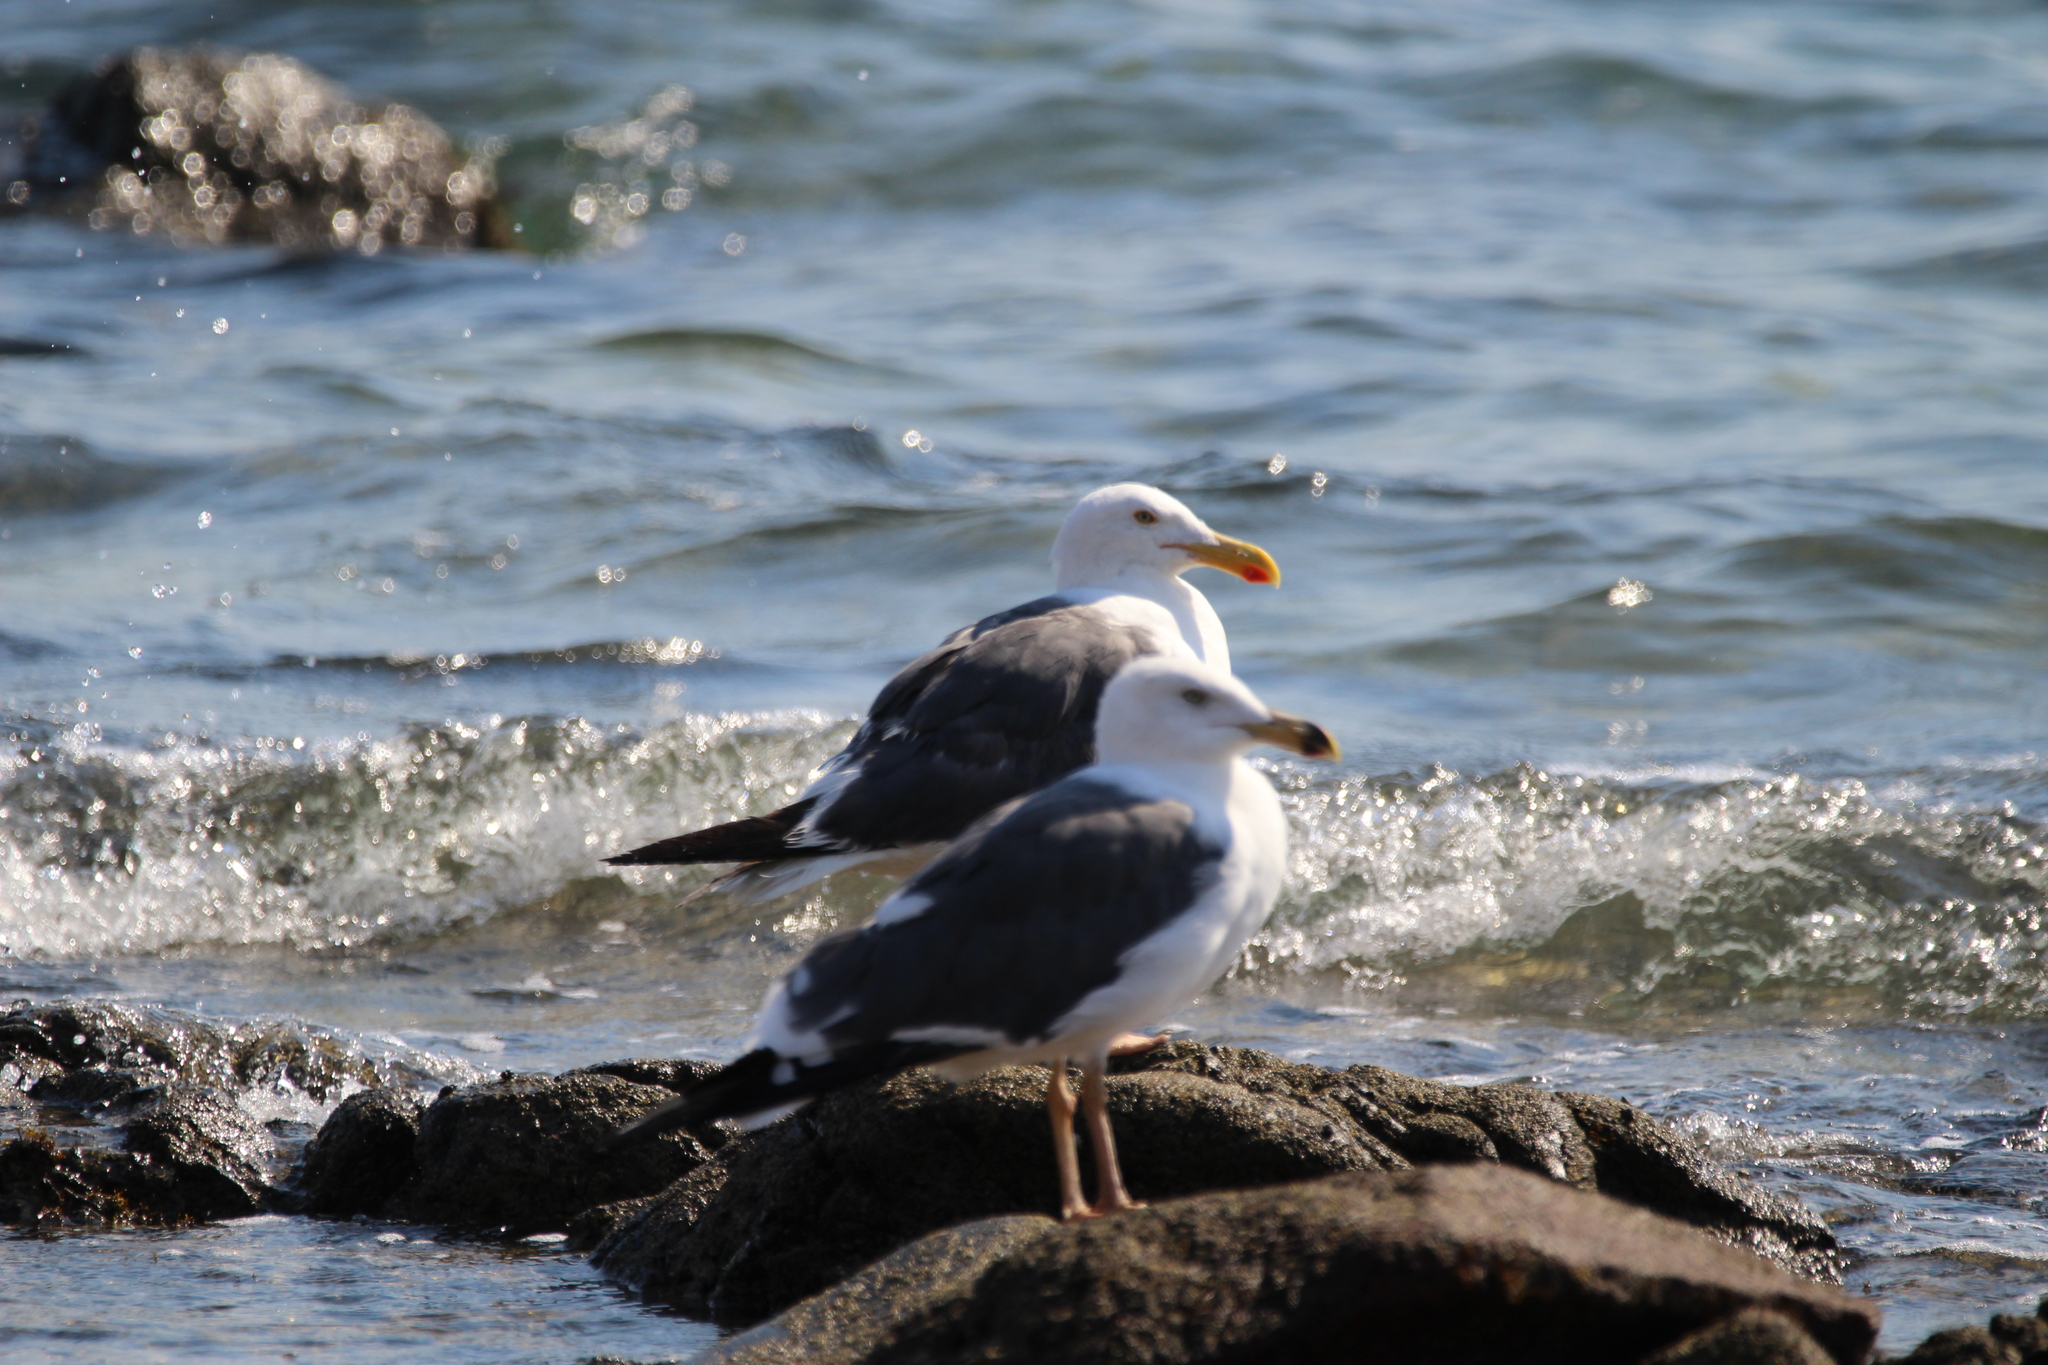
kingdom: Animalia
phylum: Chordata
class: Aves
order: Charadriiformes
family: Laridae
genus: Larus
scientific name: Larus livens
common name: Yellow-footed gull
